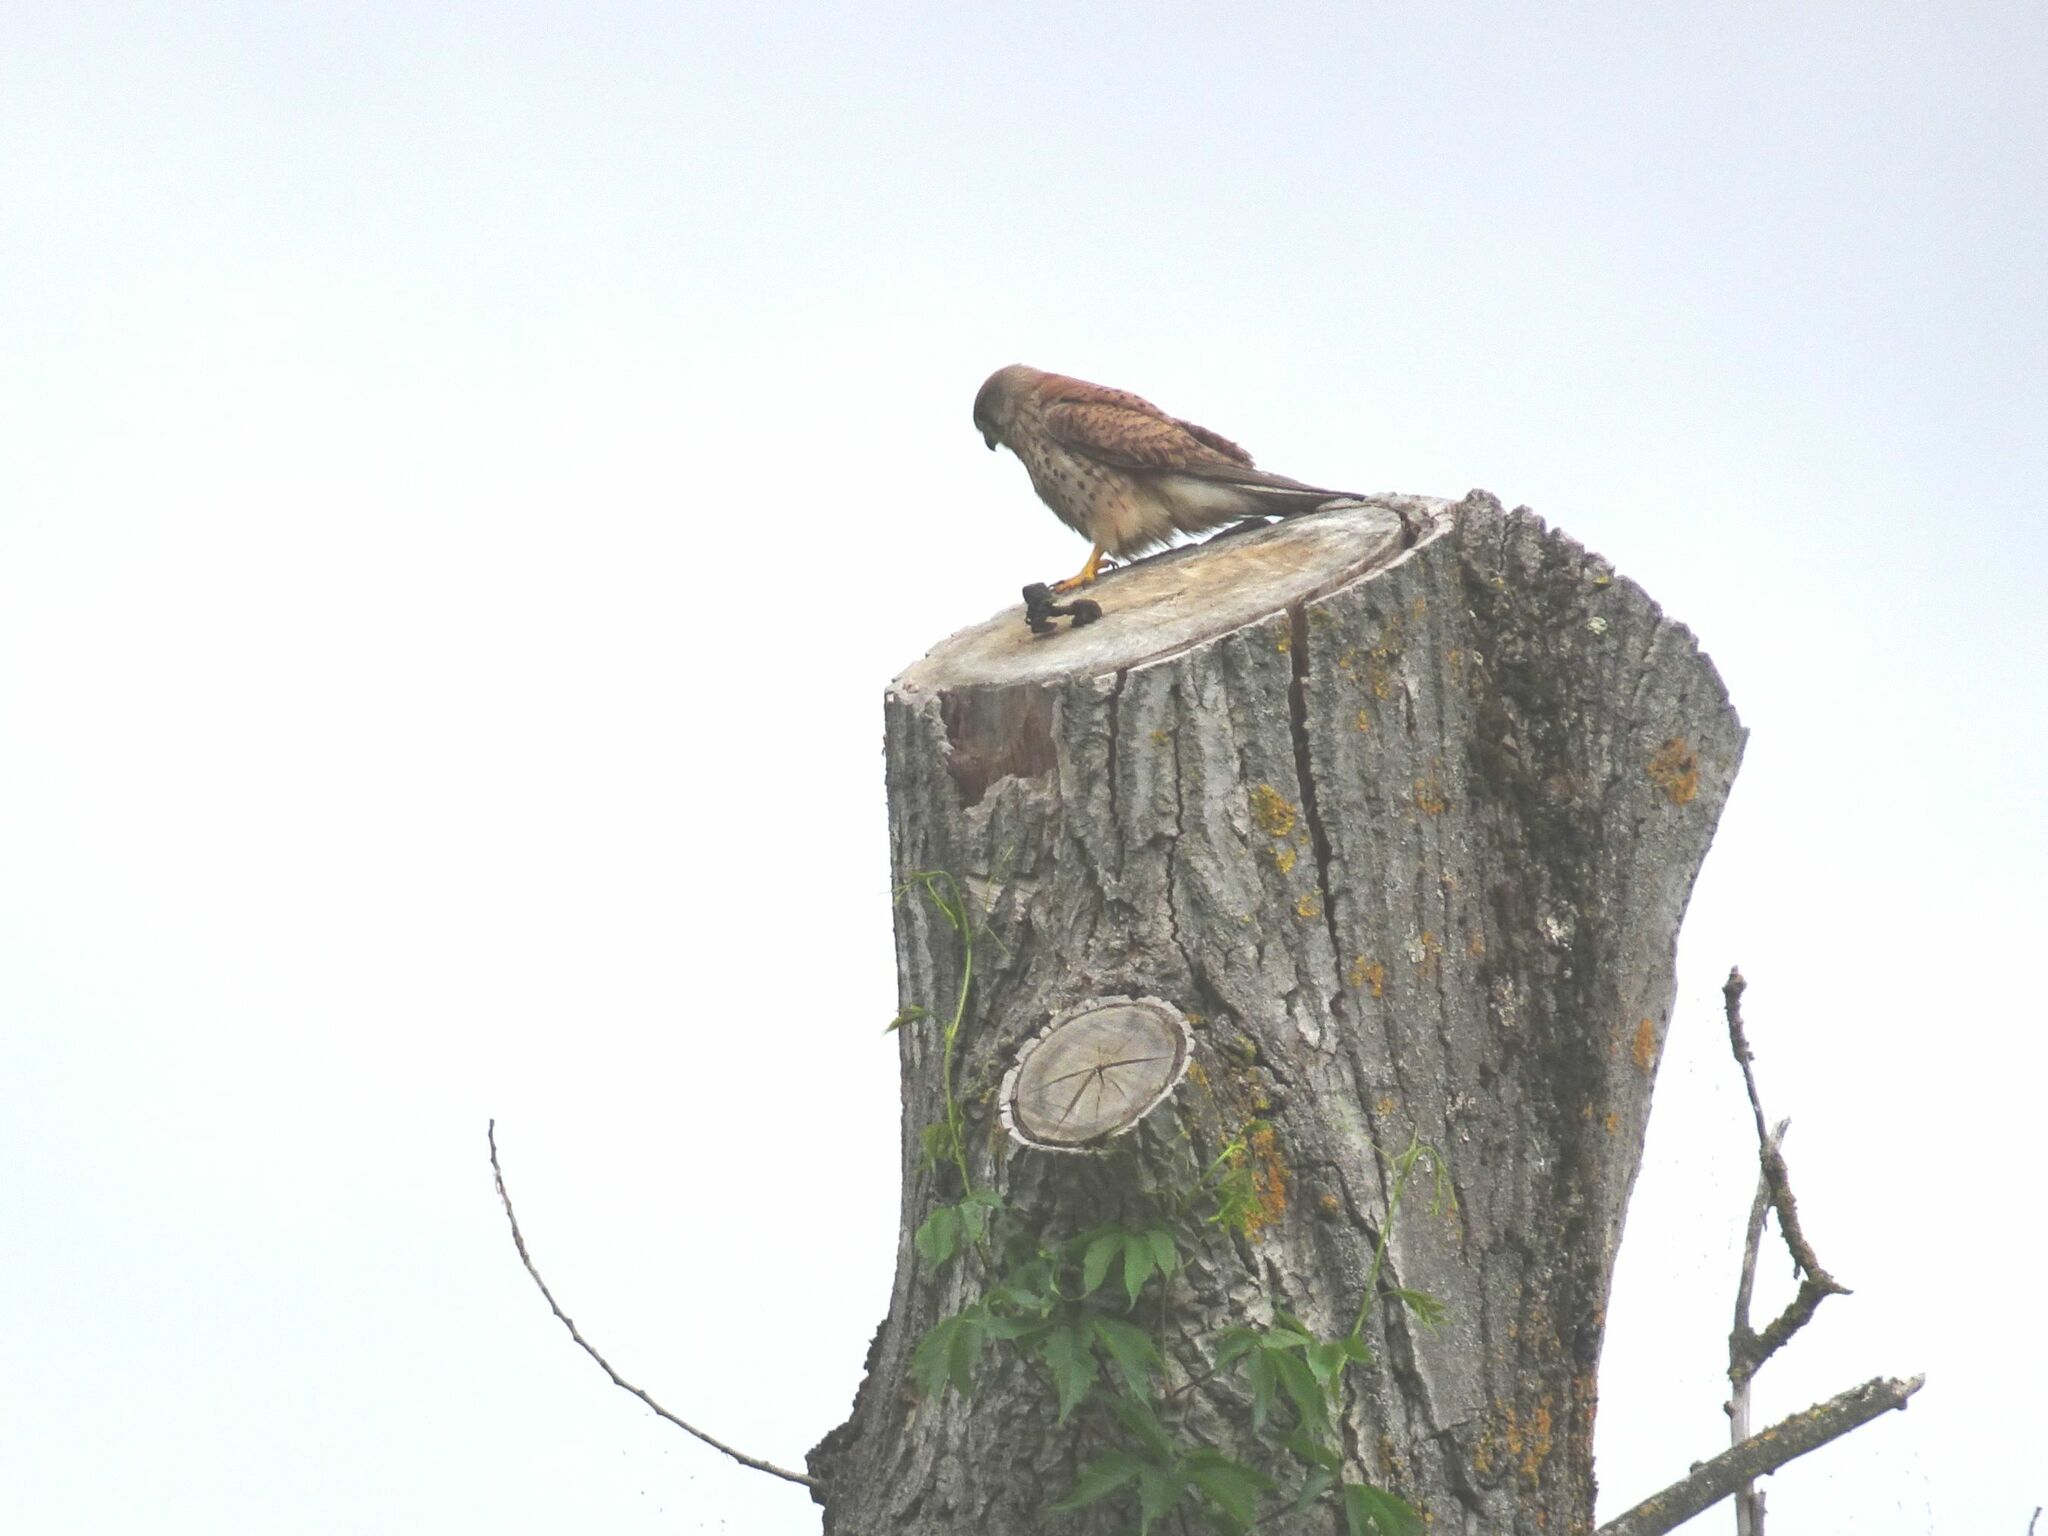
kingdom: Animalia
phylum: Chordata
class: Aves
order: Falconiformes
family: Falconidae
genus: Falco
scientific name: Falco tinnunculus
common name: Common kestrel
